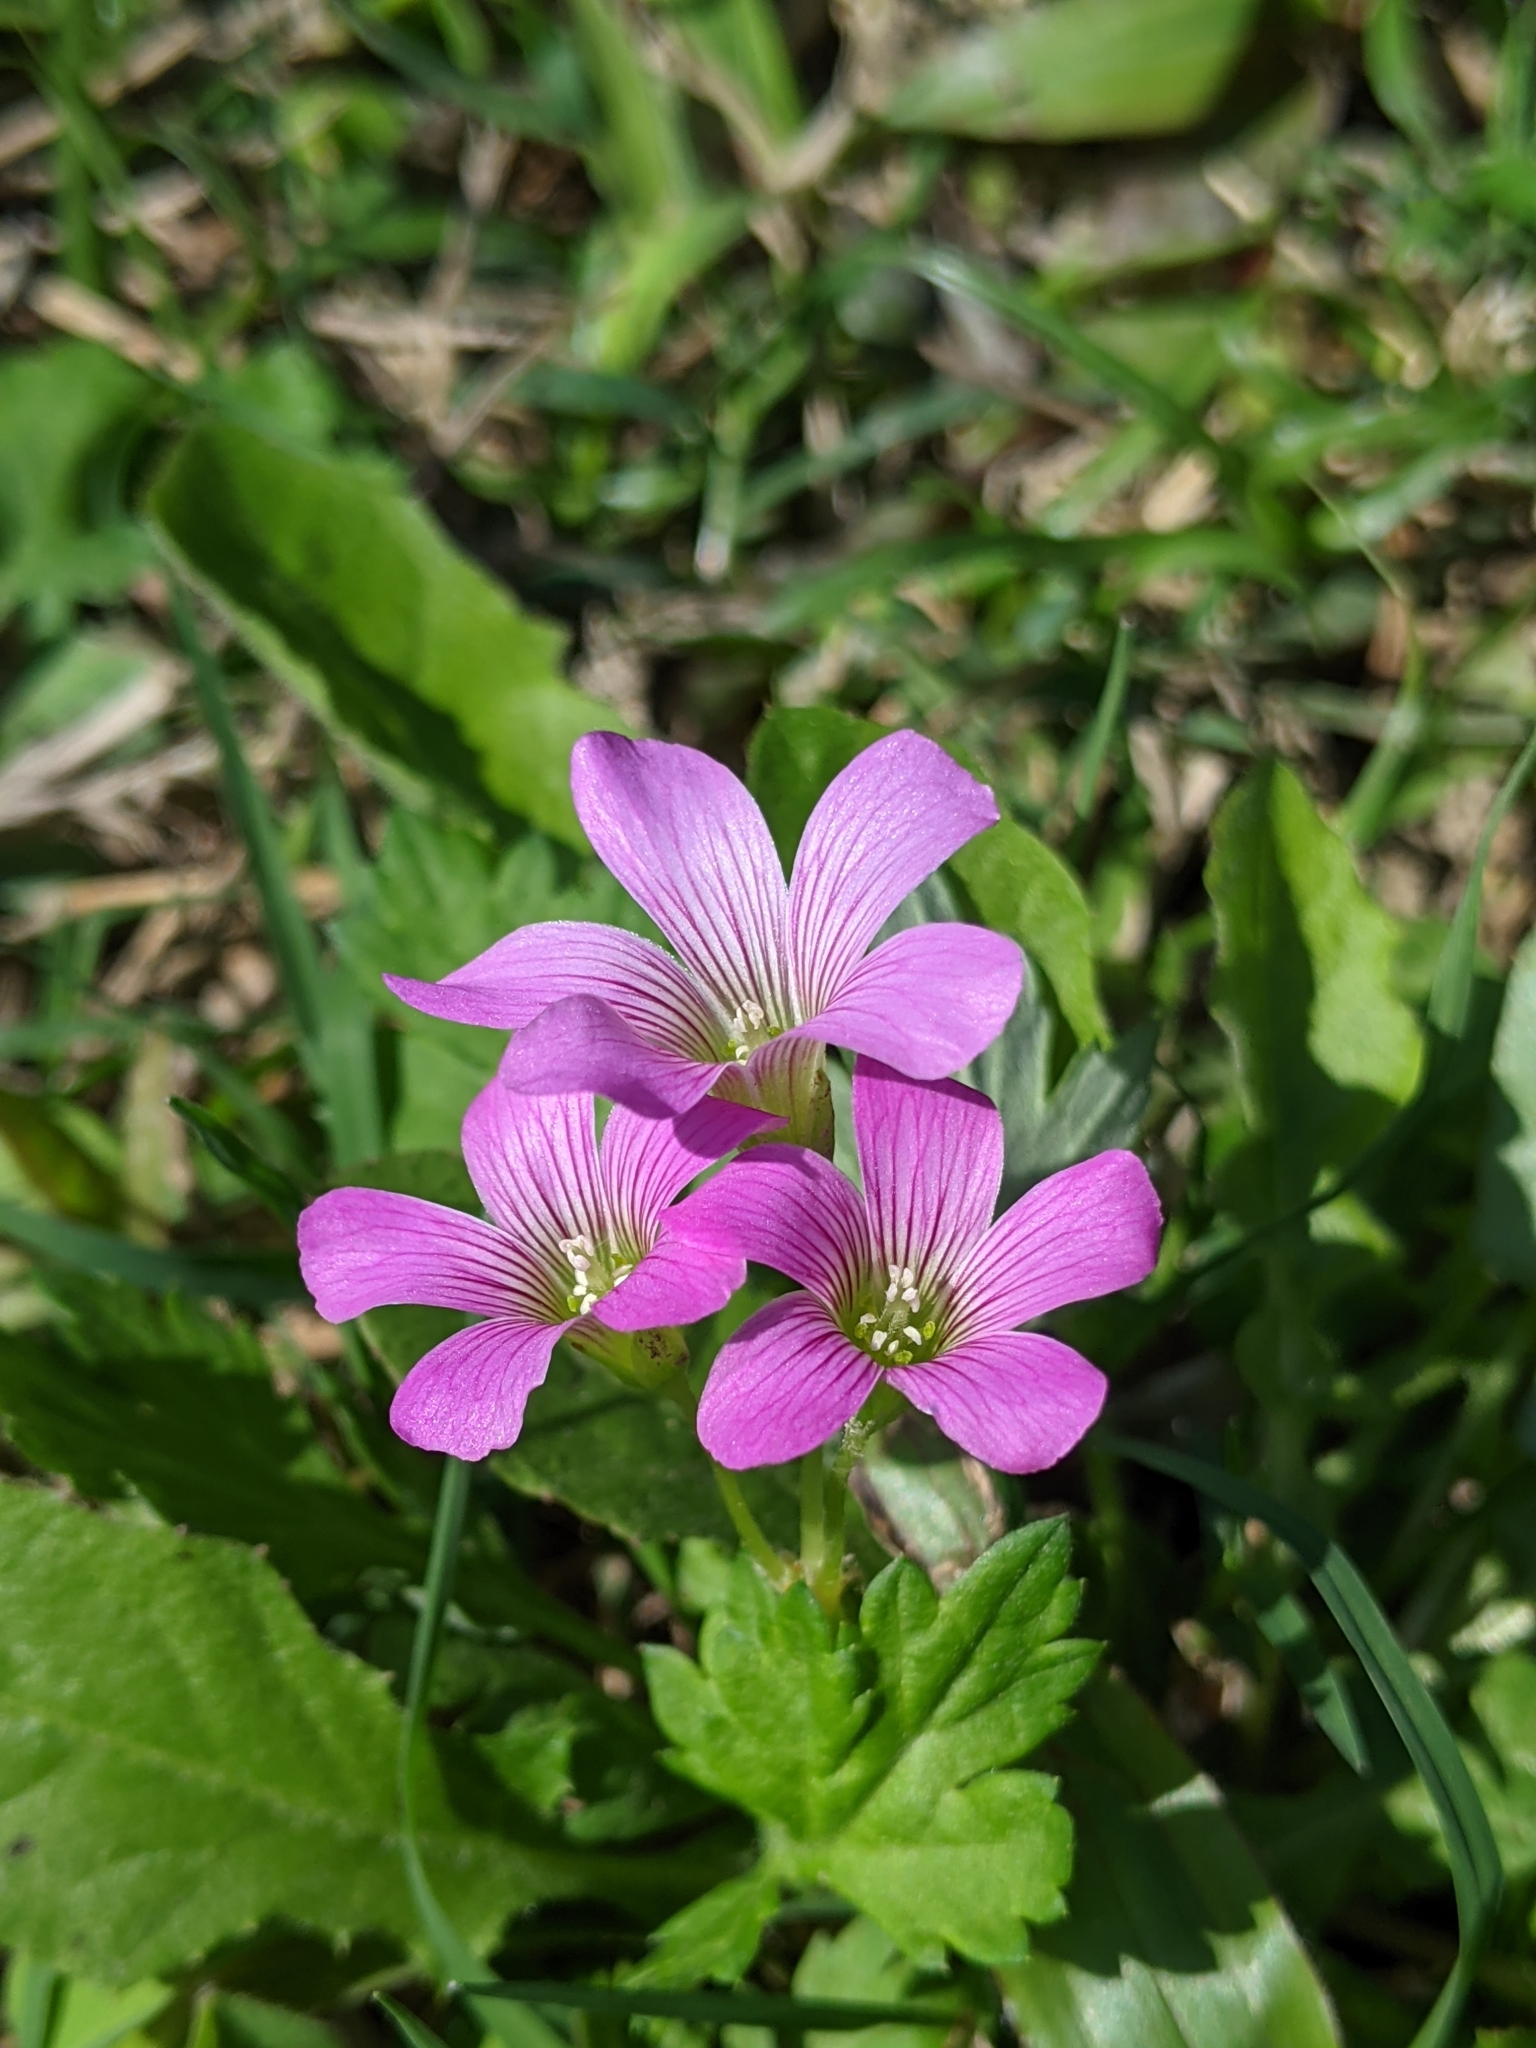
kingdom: Plantae
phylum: Tracheophyta
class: Magnoliopsida
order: Oxalidales
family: Oxalidaceae
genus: Oxalis
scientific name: Oxalis debilis
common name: Large-flowered pink-sorrel
